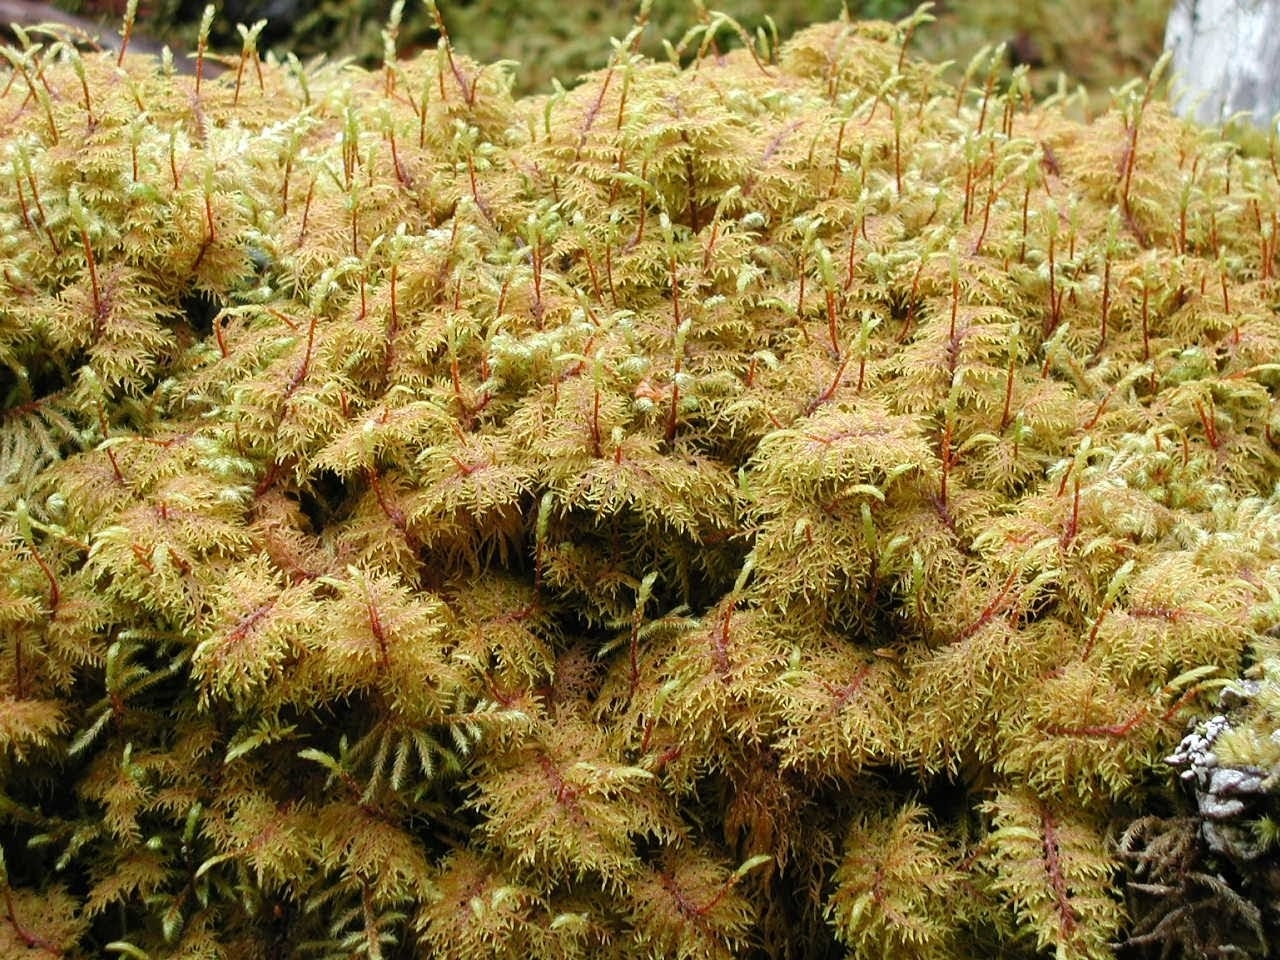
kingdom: Plantae
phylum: Bryophyta
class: Bryopsida
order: Hypnales
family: Hylocomiaceae
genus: Hylocomium
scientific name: Hylocomium splendens
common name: Stairstep moss
